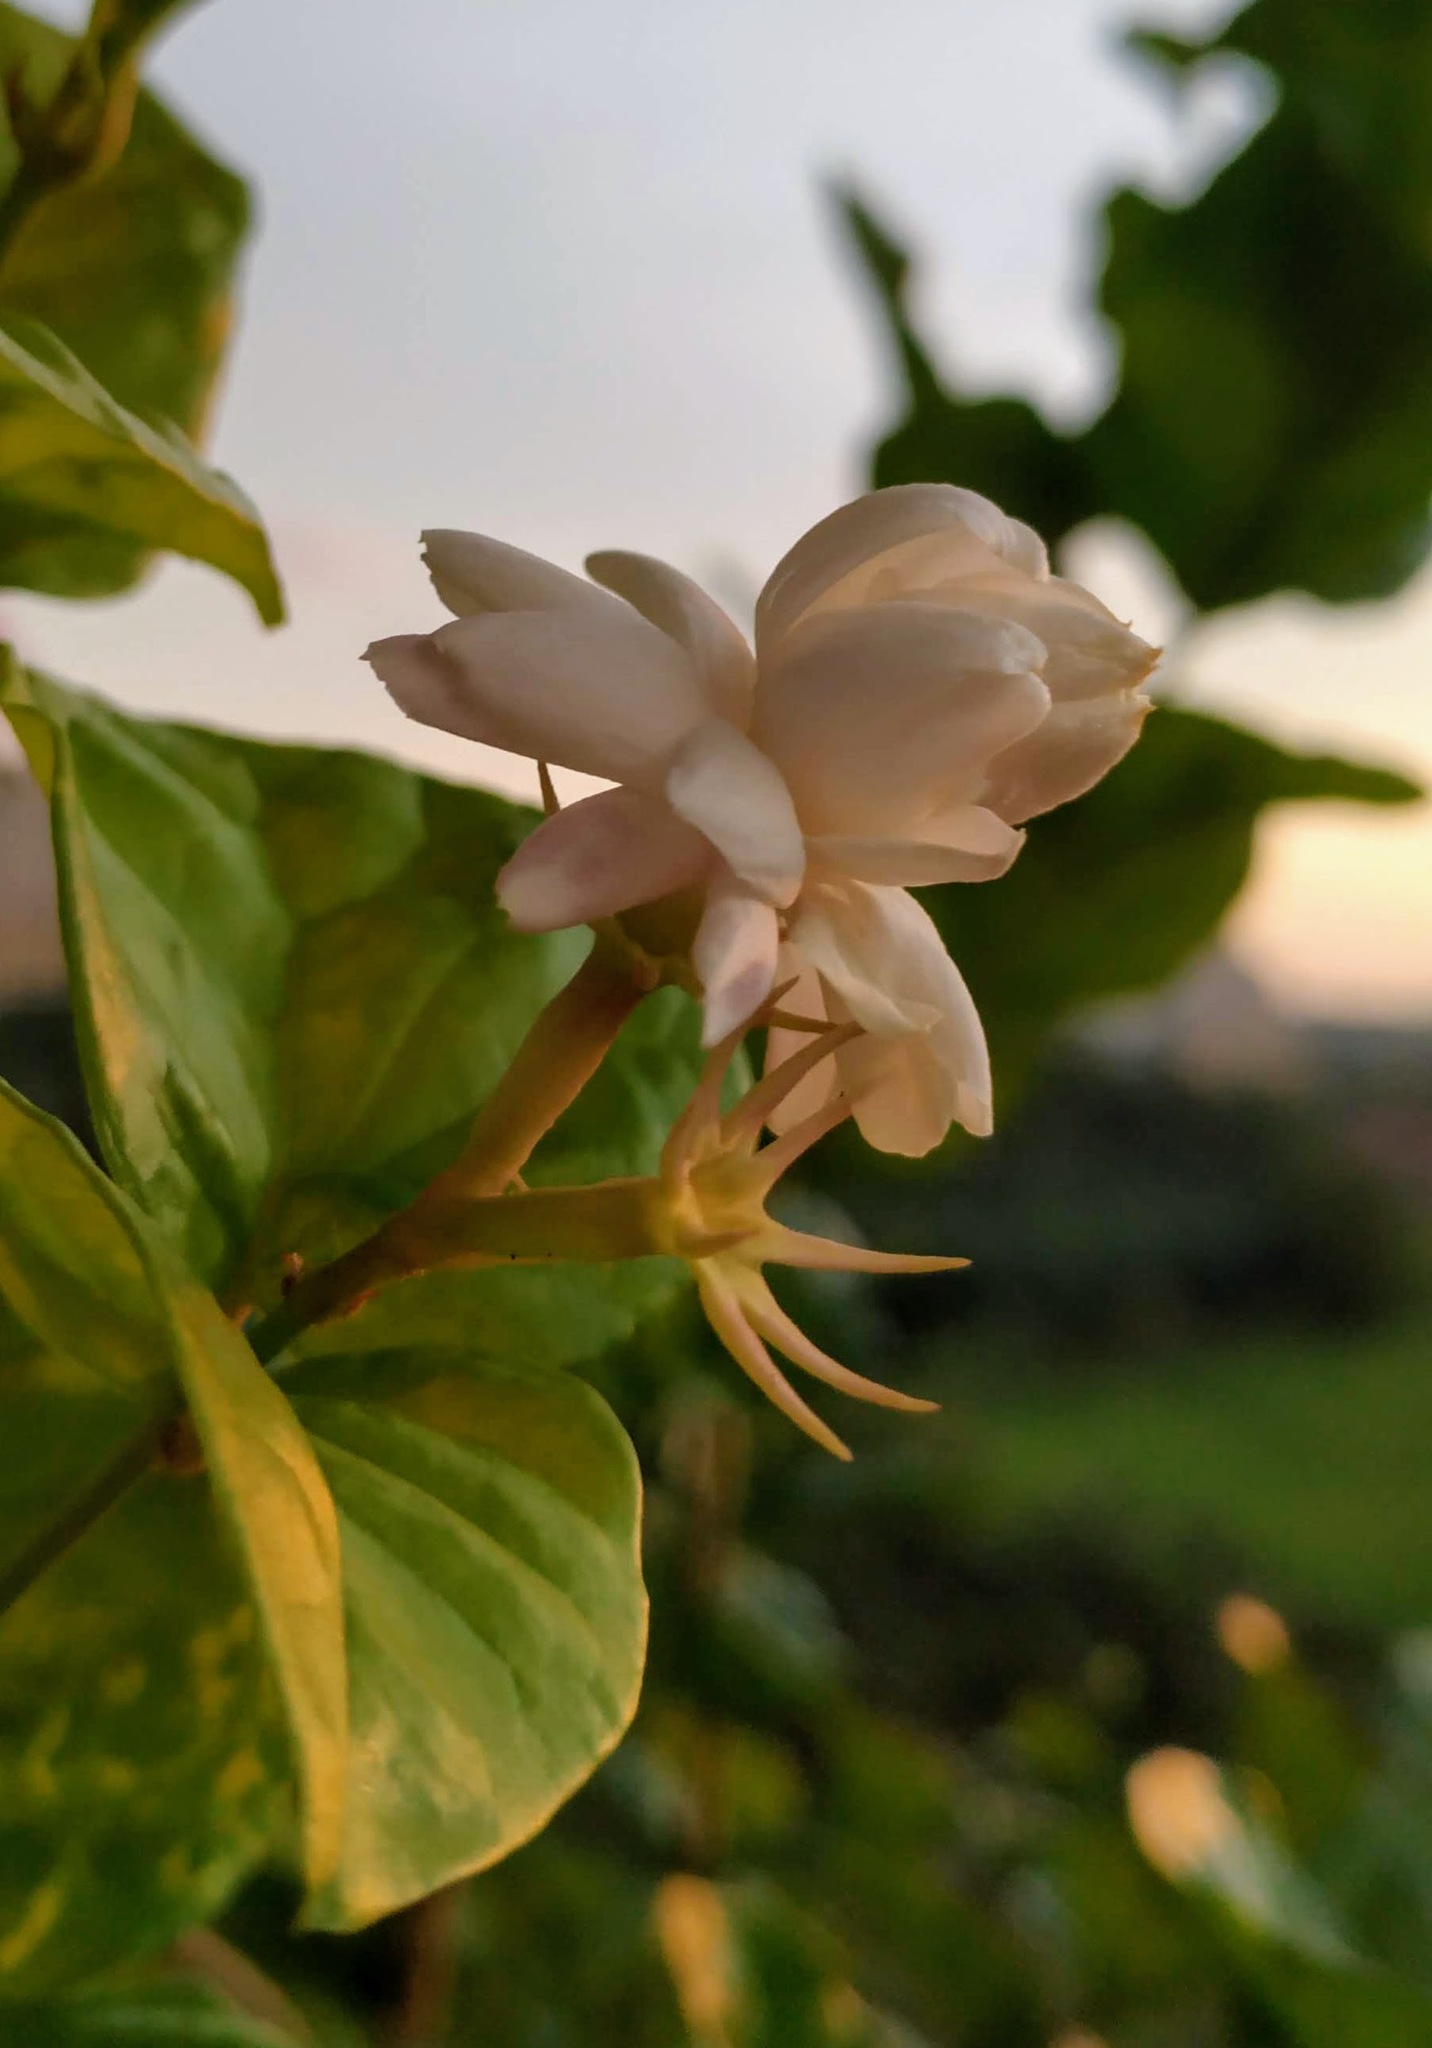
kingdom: Plantae
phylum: Tracheophyta
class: Magnoliopsida
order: Lamiales
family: Oleaceae
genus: Jasminum
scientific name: Jasminum sambac
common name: Arabian jasmine
